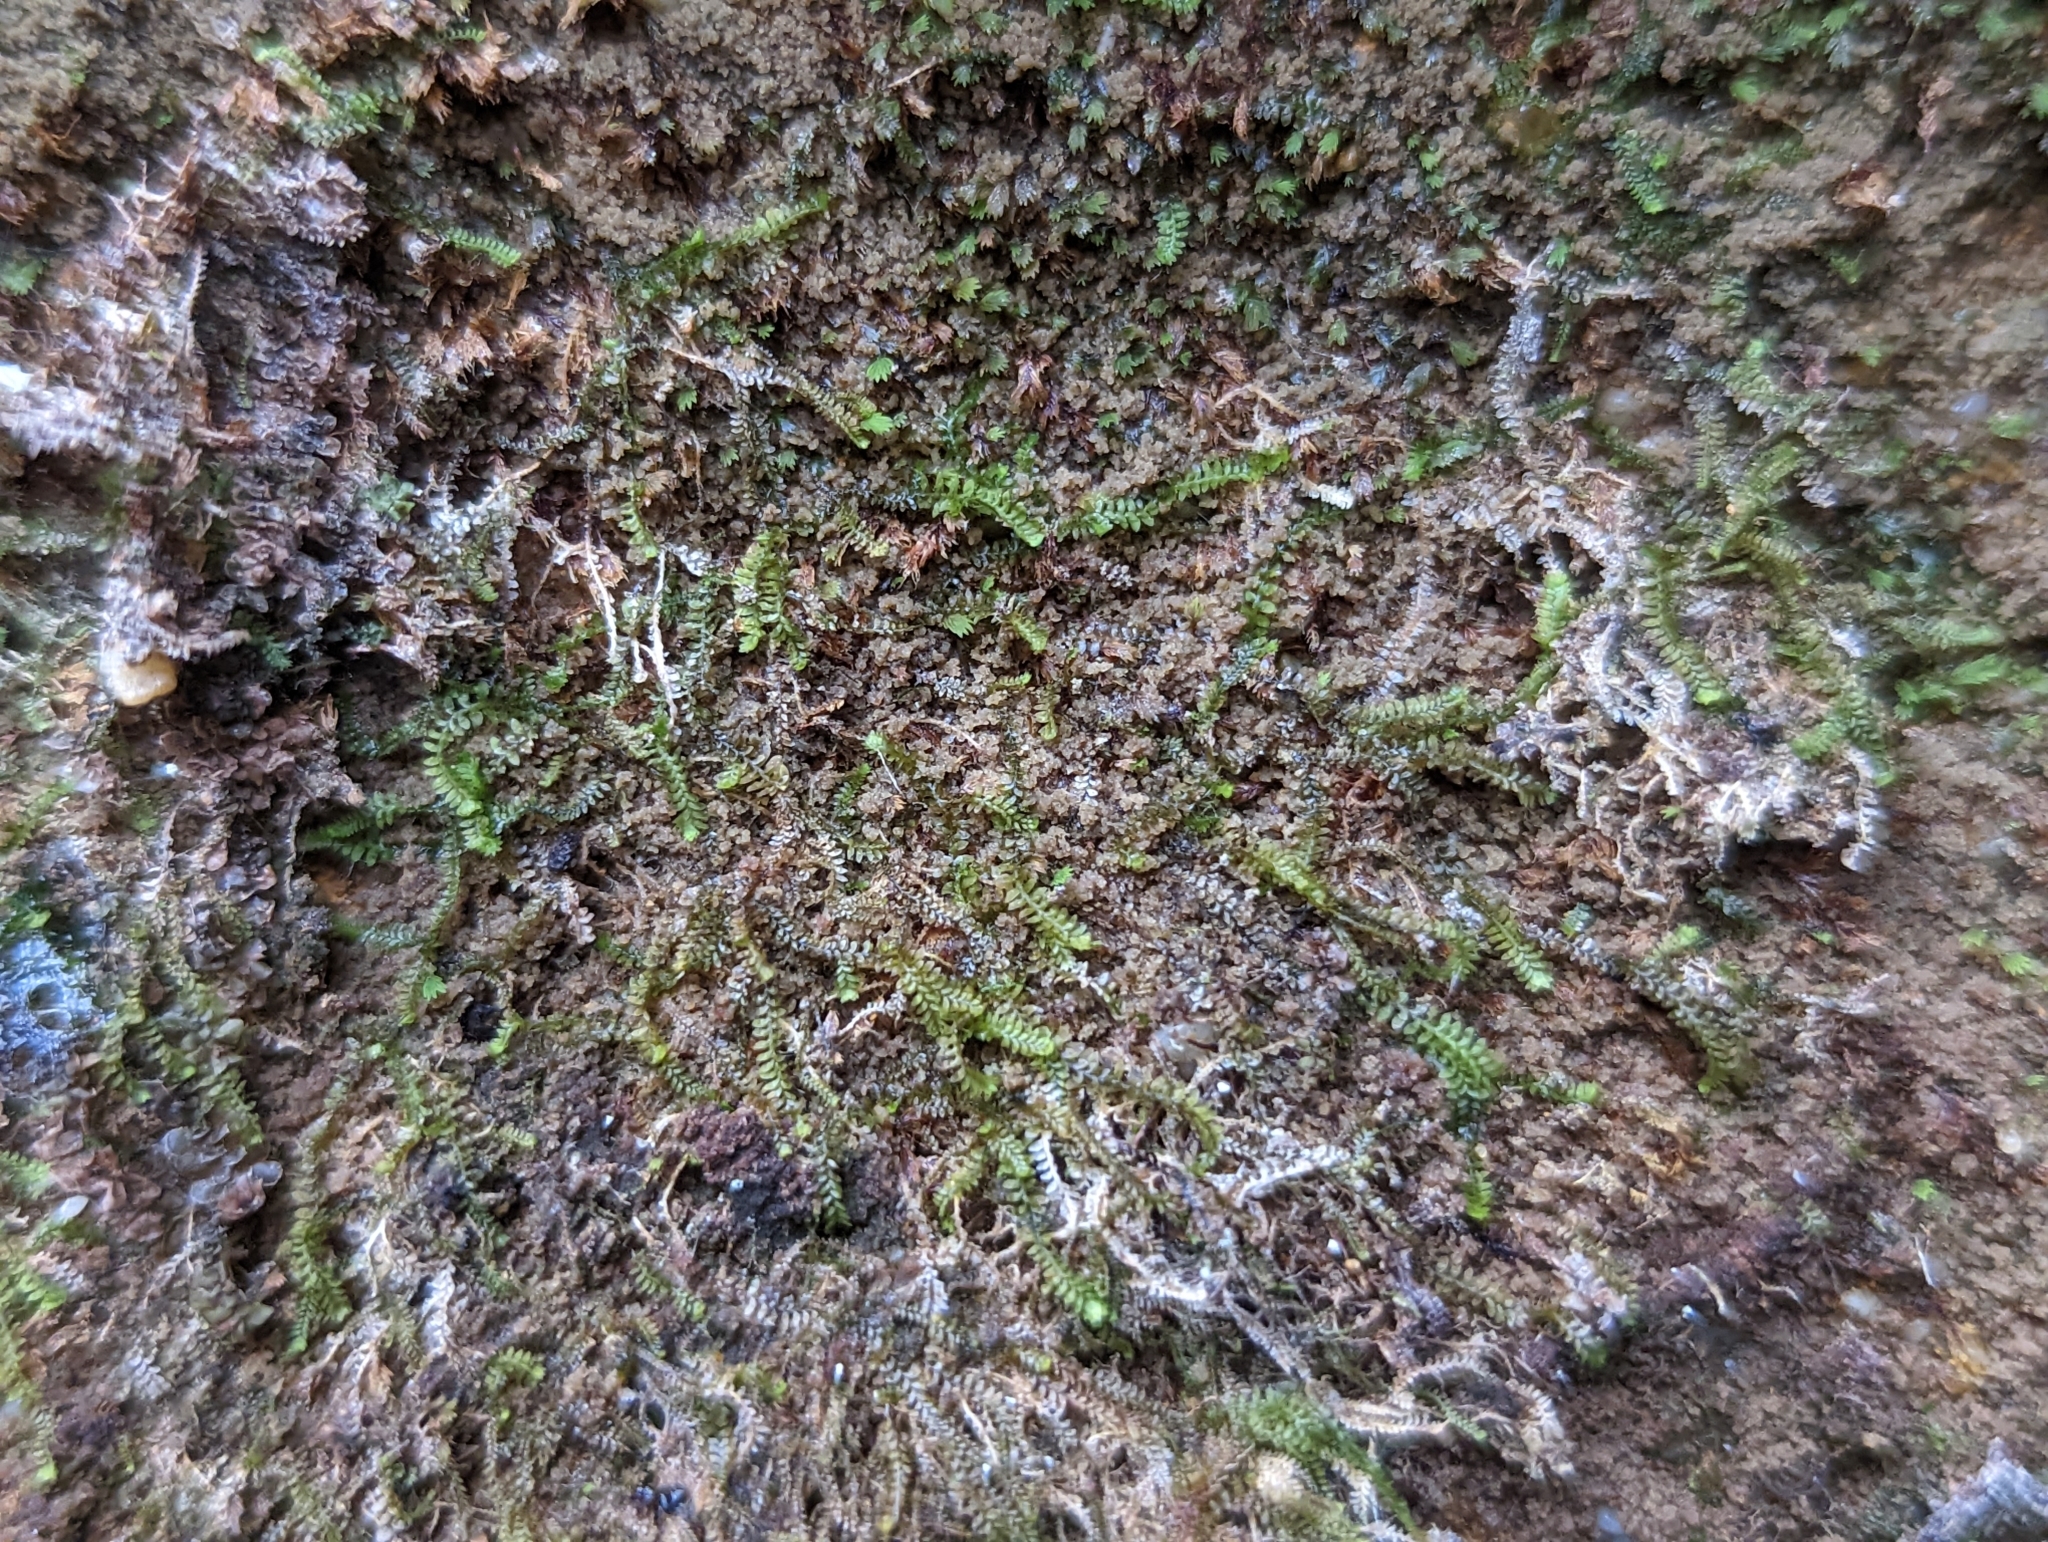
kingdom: Plantae
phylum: Marchantiophyta
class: Jungermanniopsida
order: Jungermanniales
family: Scapaniaceae
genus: Diplophyllum
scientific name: Diplophyllum apiculatum
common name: Sharp-pointed earwort
